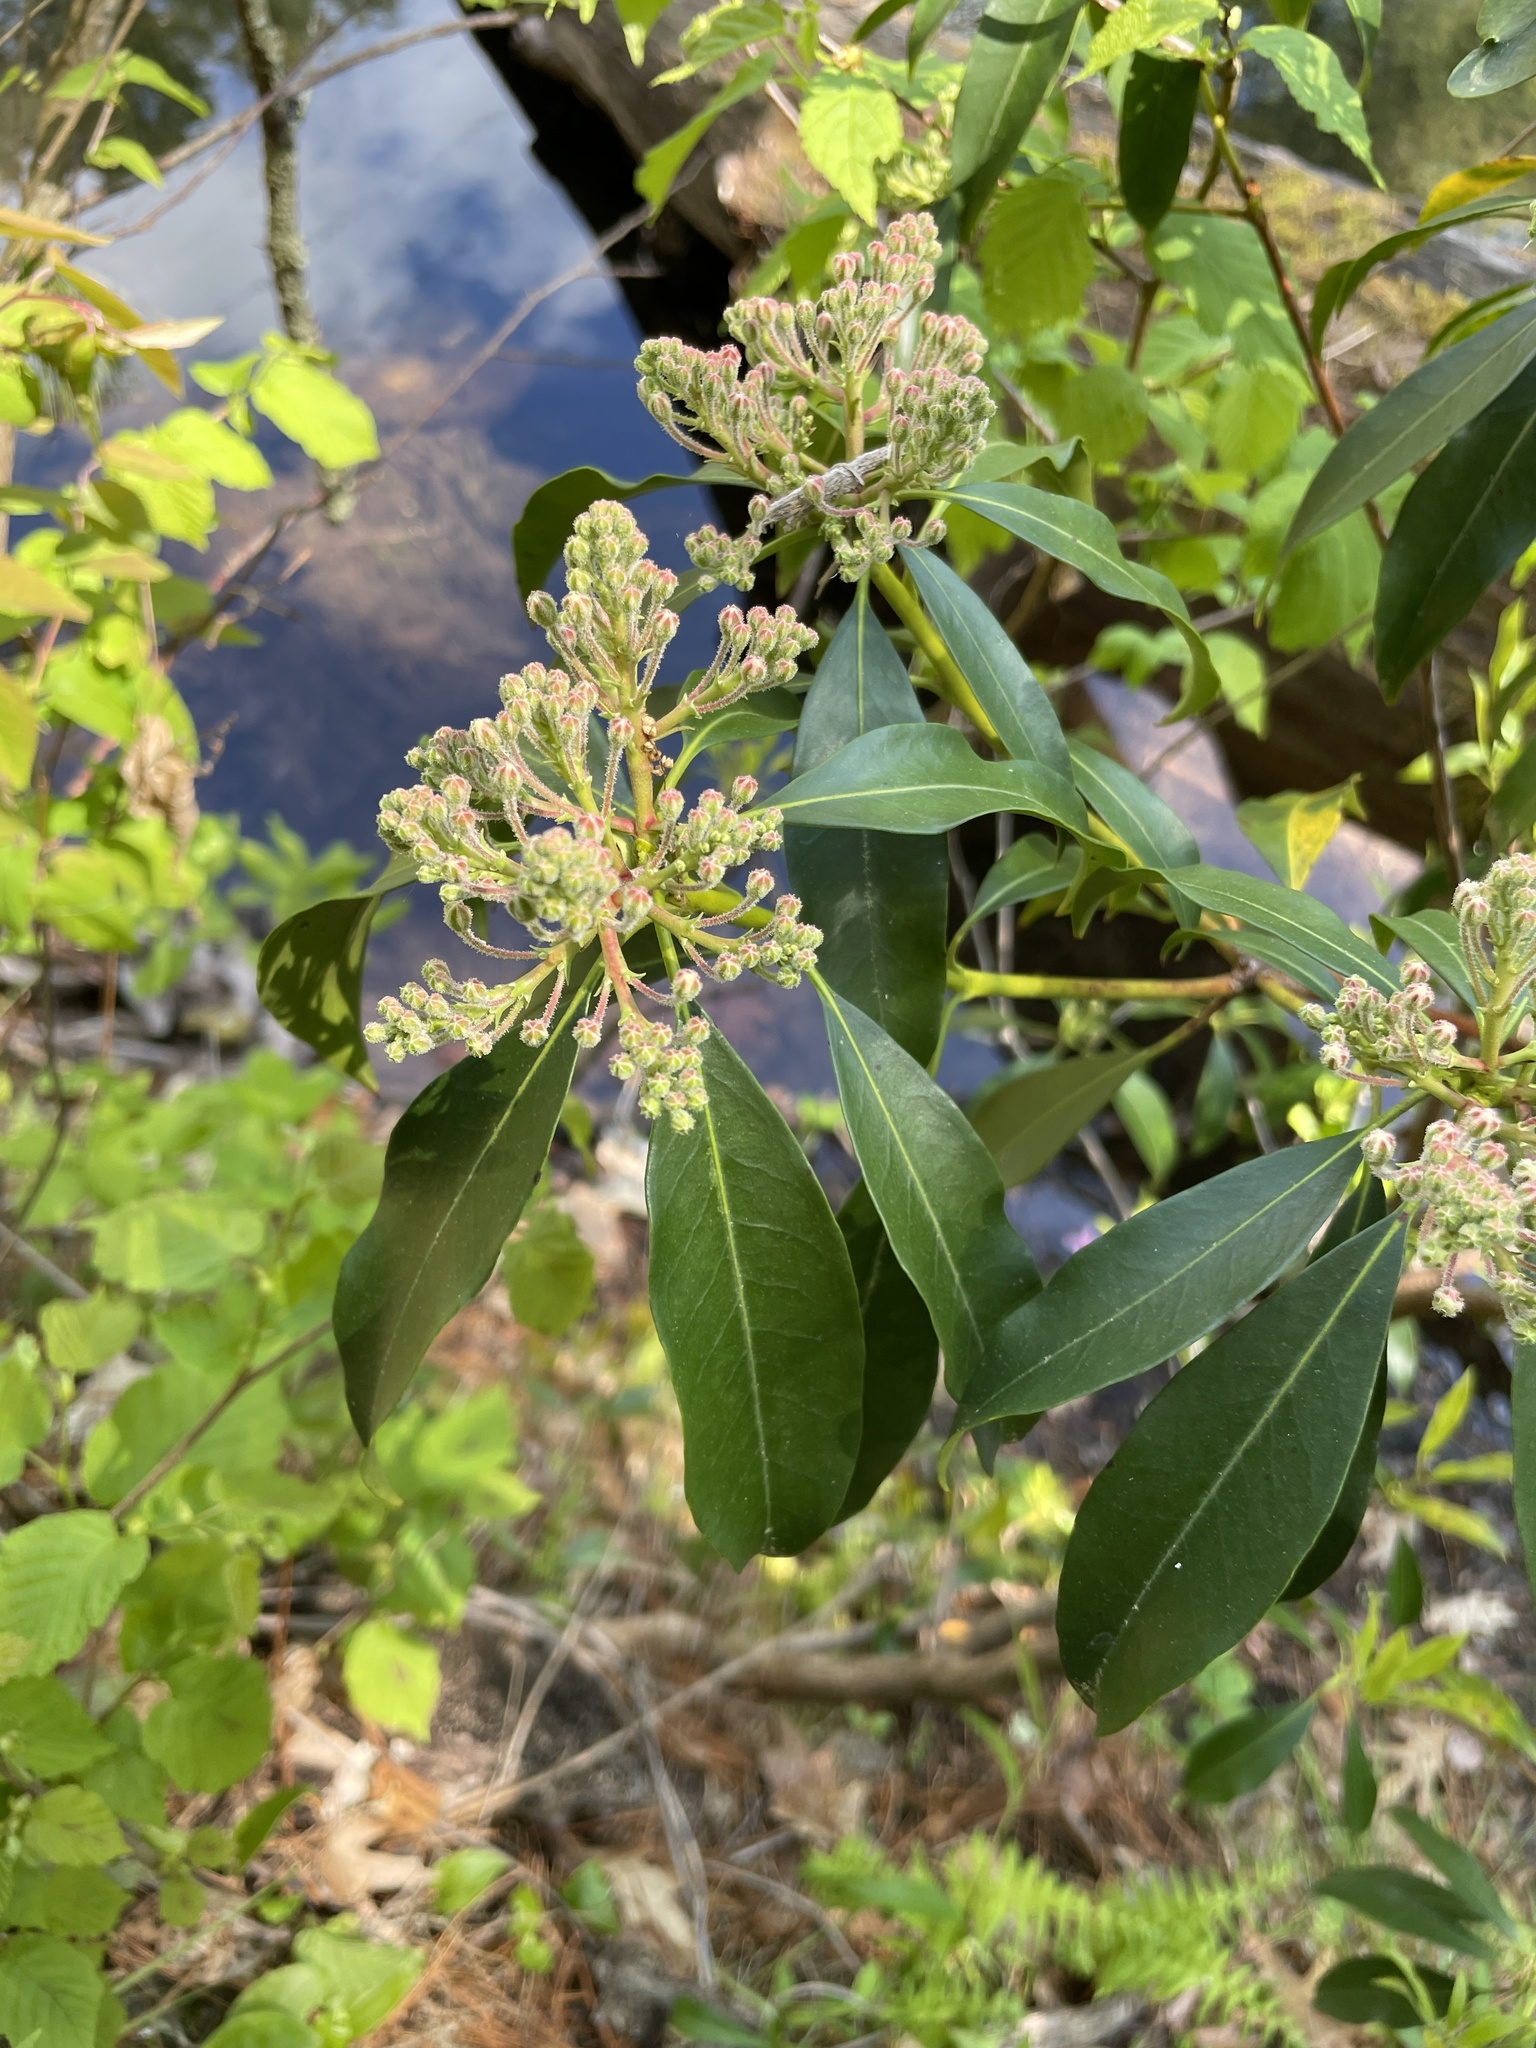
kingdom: Plantae
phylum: Tracheophyta
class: Magnoliopsida
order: Ericales
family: Ericaceae
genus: Kalmia
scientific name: Kalmia latifolia
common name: Mountain-laurel
